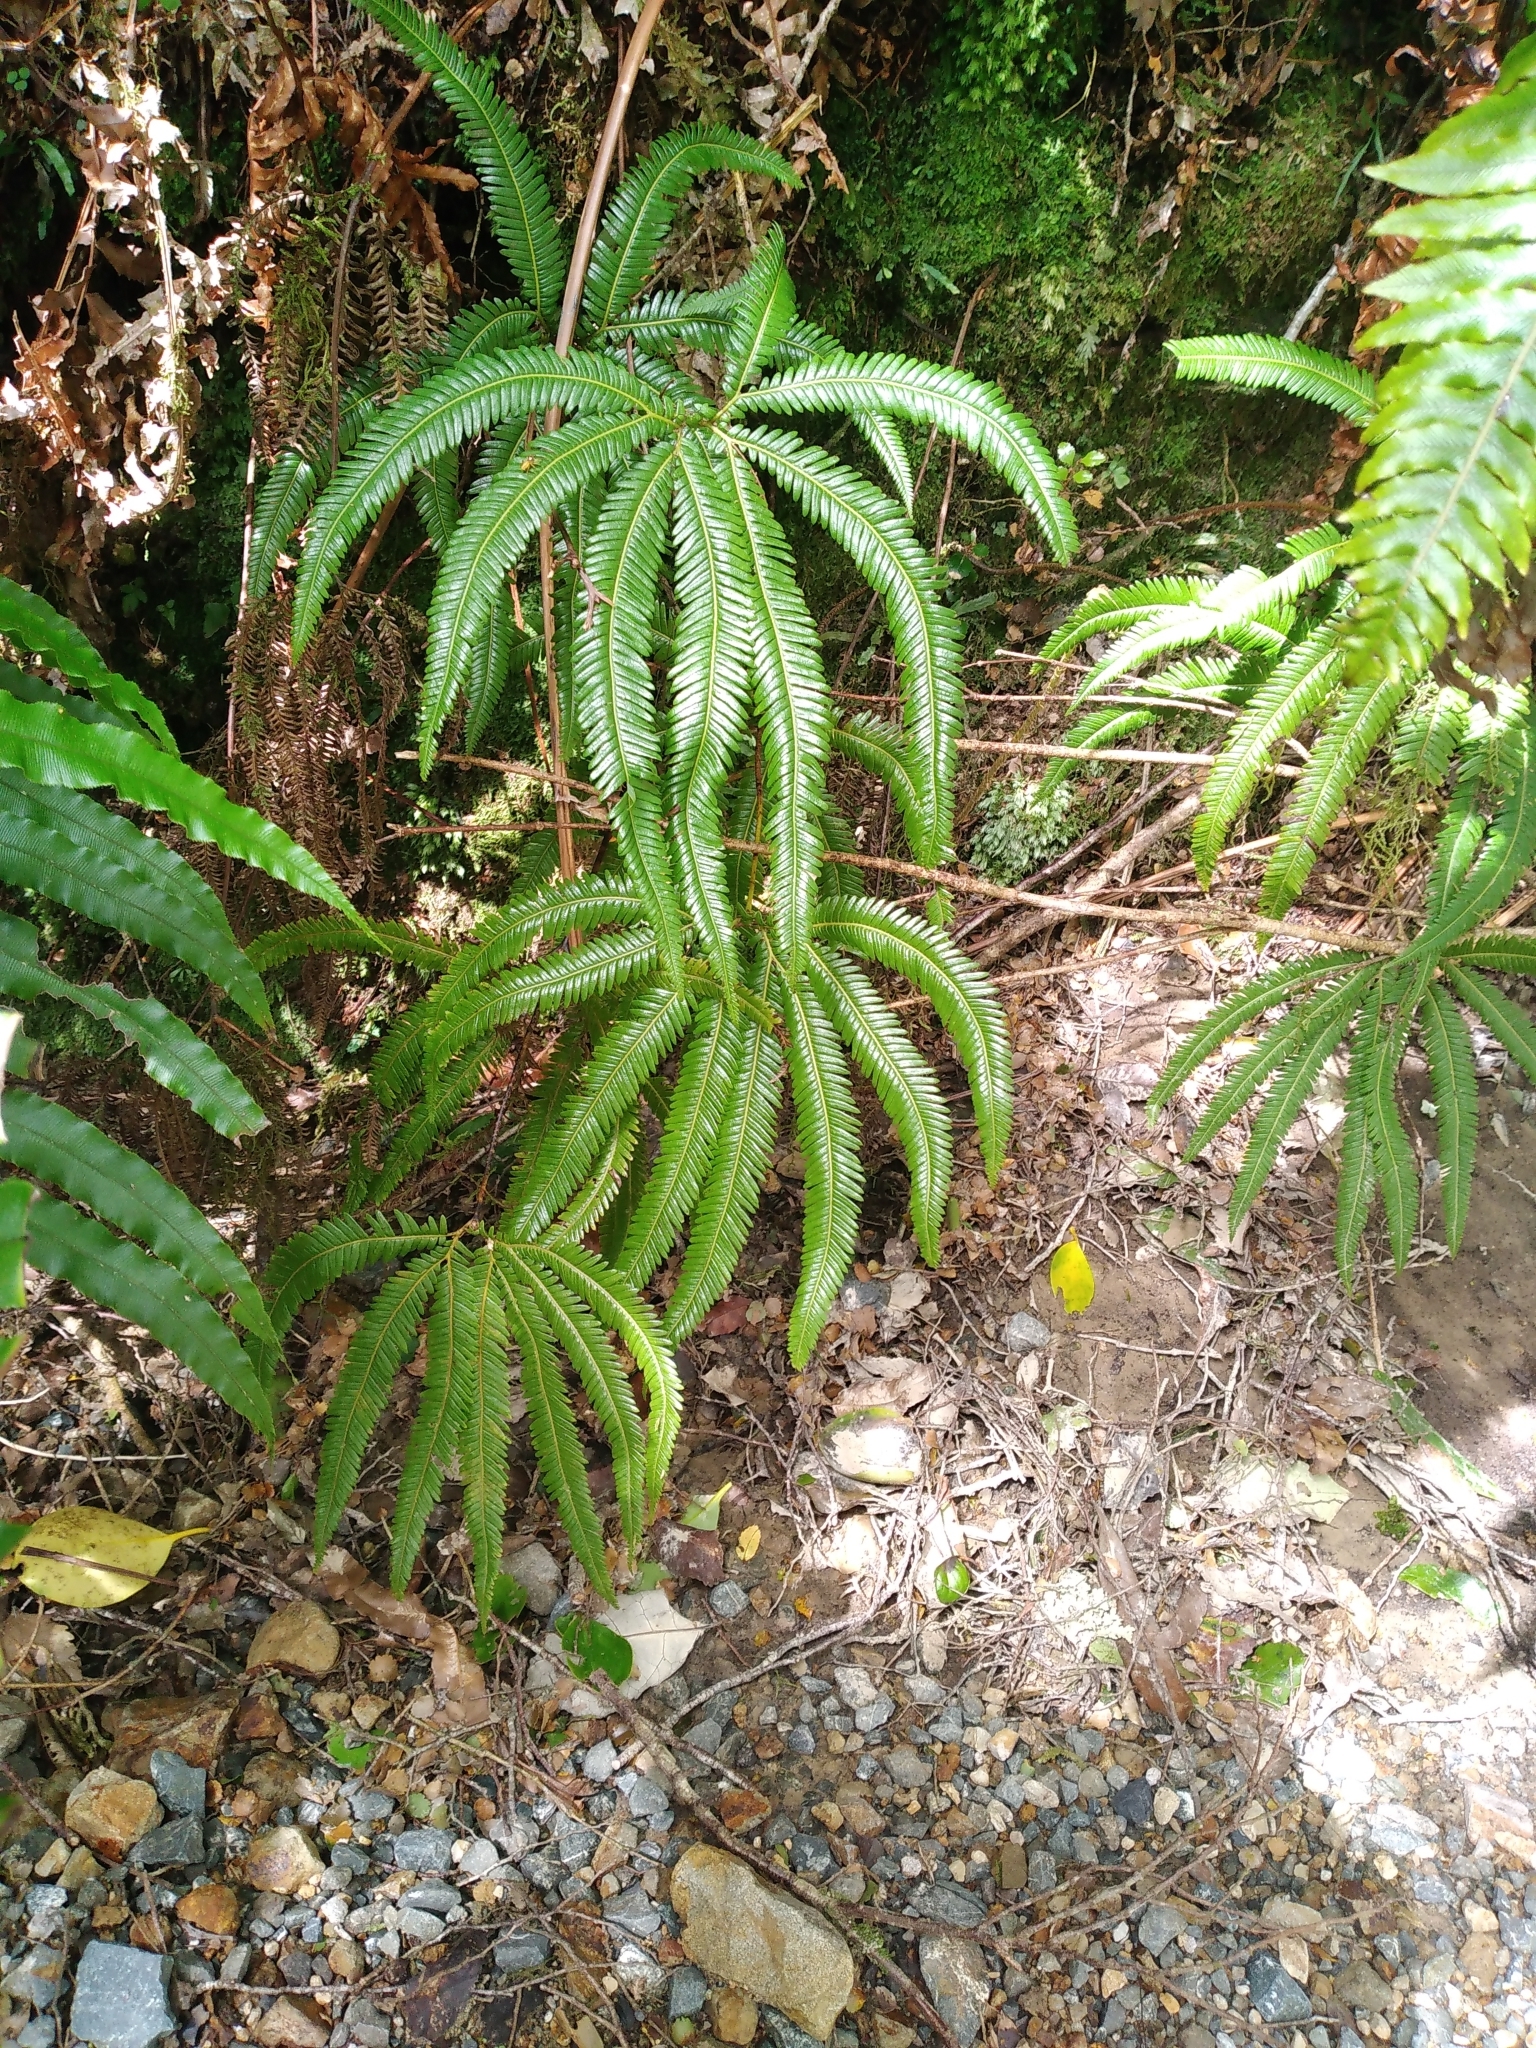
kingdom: Plantae
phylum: Tracheophyta
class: Polypodiopsida
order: Gleicheniales
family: Gleicheniaceae
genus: Sticherus
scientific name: Sticherus cunninghamii
